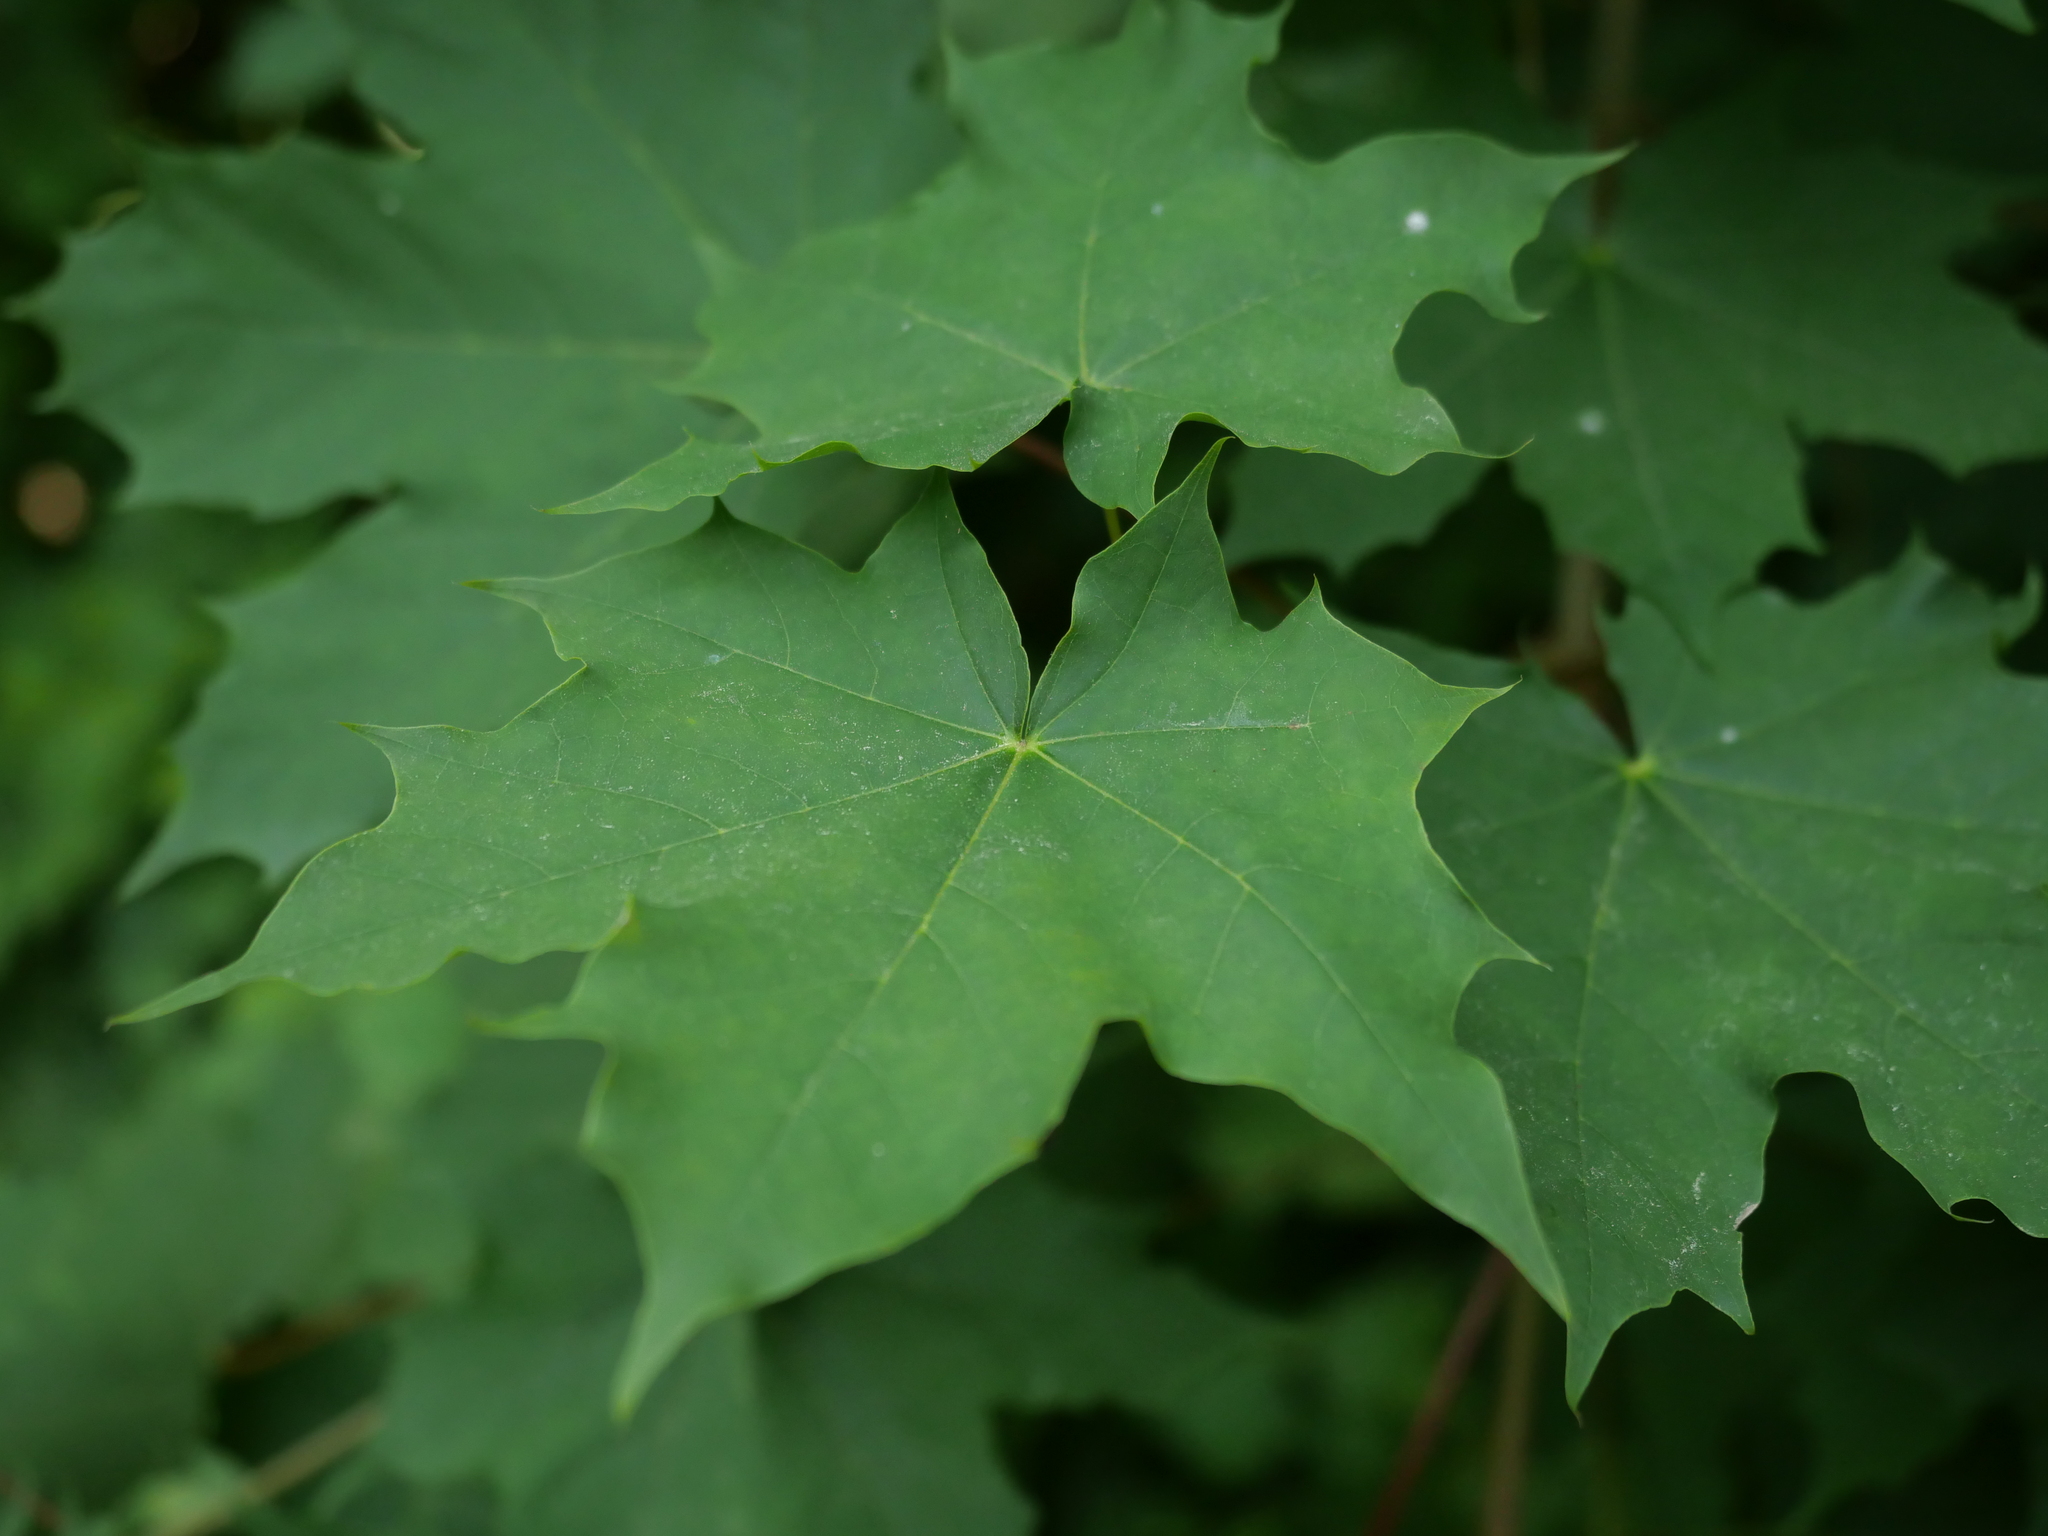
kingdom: Plantae
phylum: Tracheophyta
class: Magnoliopsida
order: Sapindales
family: Sapindaceae
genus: Acer
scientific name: Acer platanoides
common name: Norway maple
